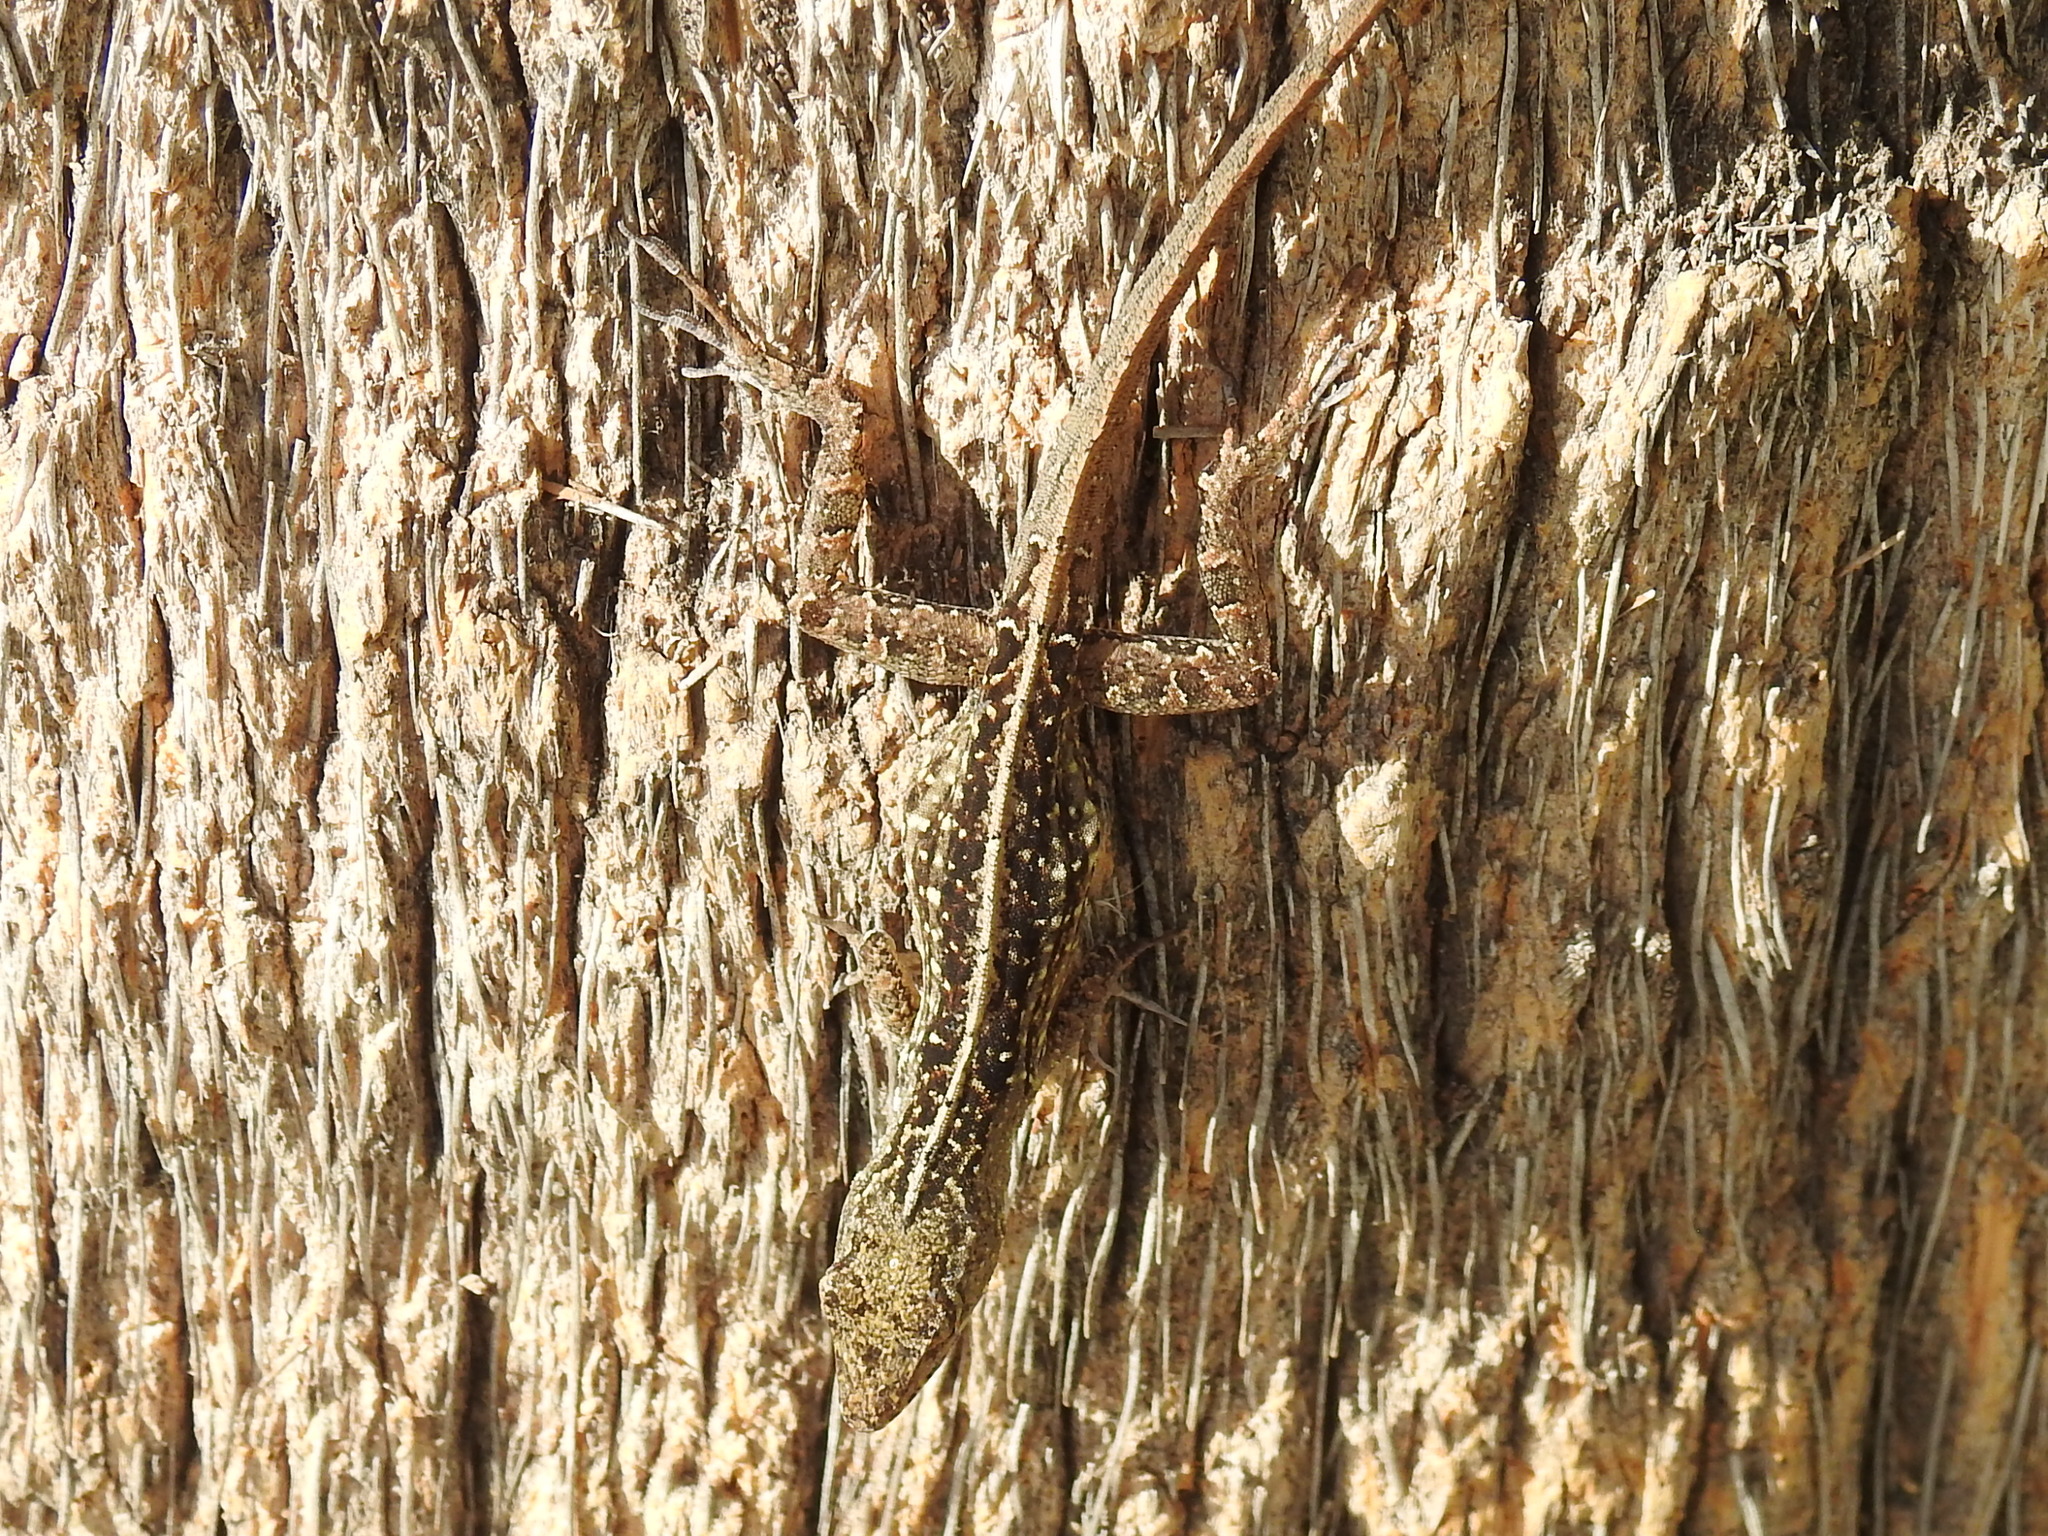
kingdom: Animalia
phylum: Chordata
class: Squamata
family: Dactyloidae
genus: Anolis
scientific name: Anolis sagrei
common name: Brown anole
